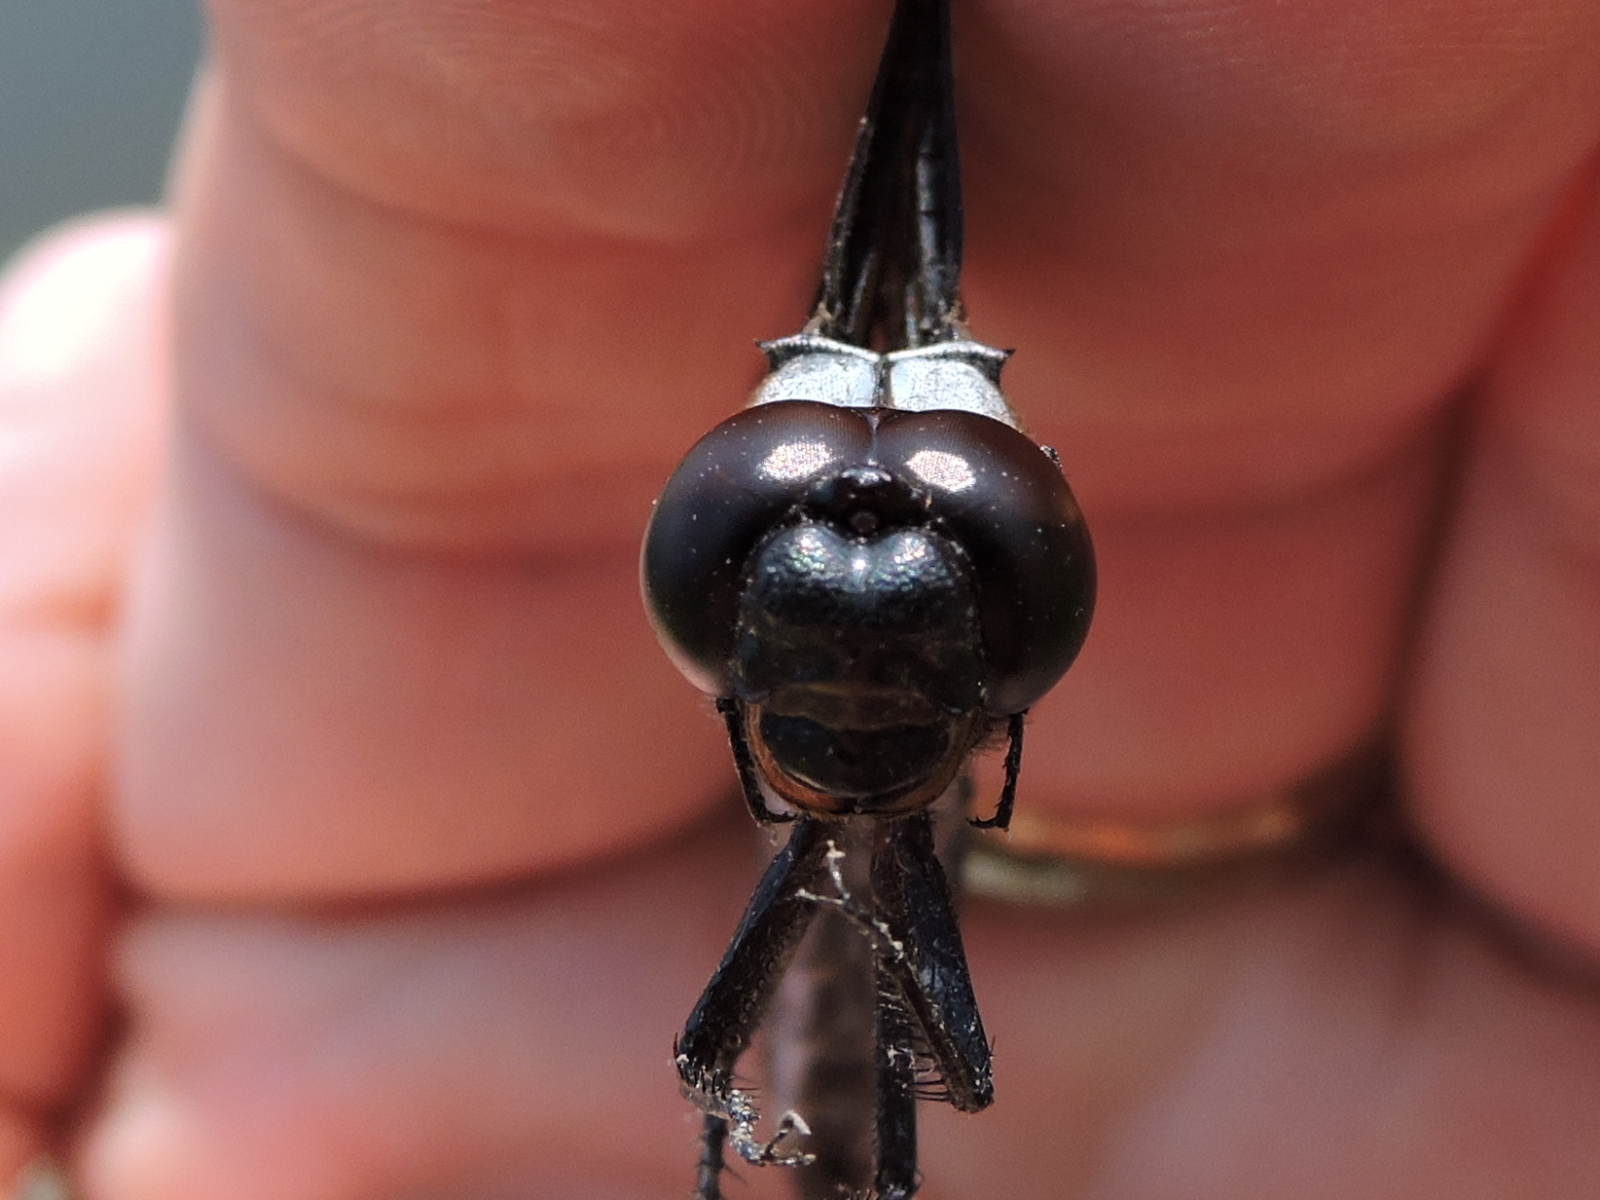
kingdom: Animalia
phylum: Arthropoda
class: Insecta
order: Odonata
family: Libellulidae
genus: Libellula
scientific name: Libellula luctuosa
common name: Widow skimmer
